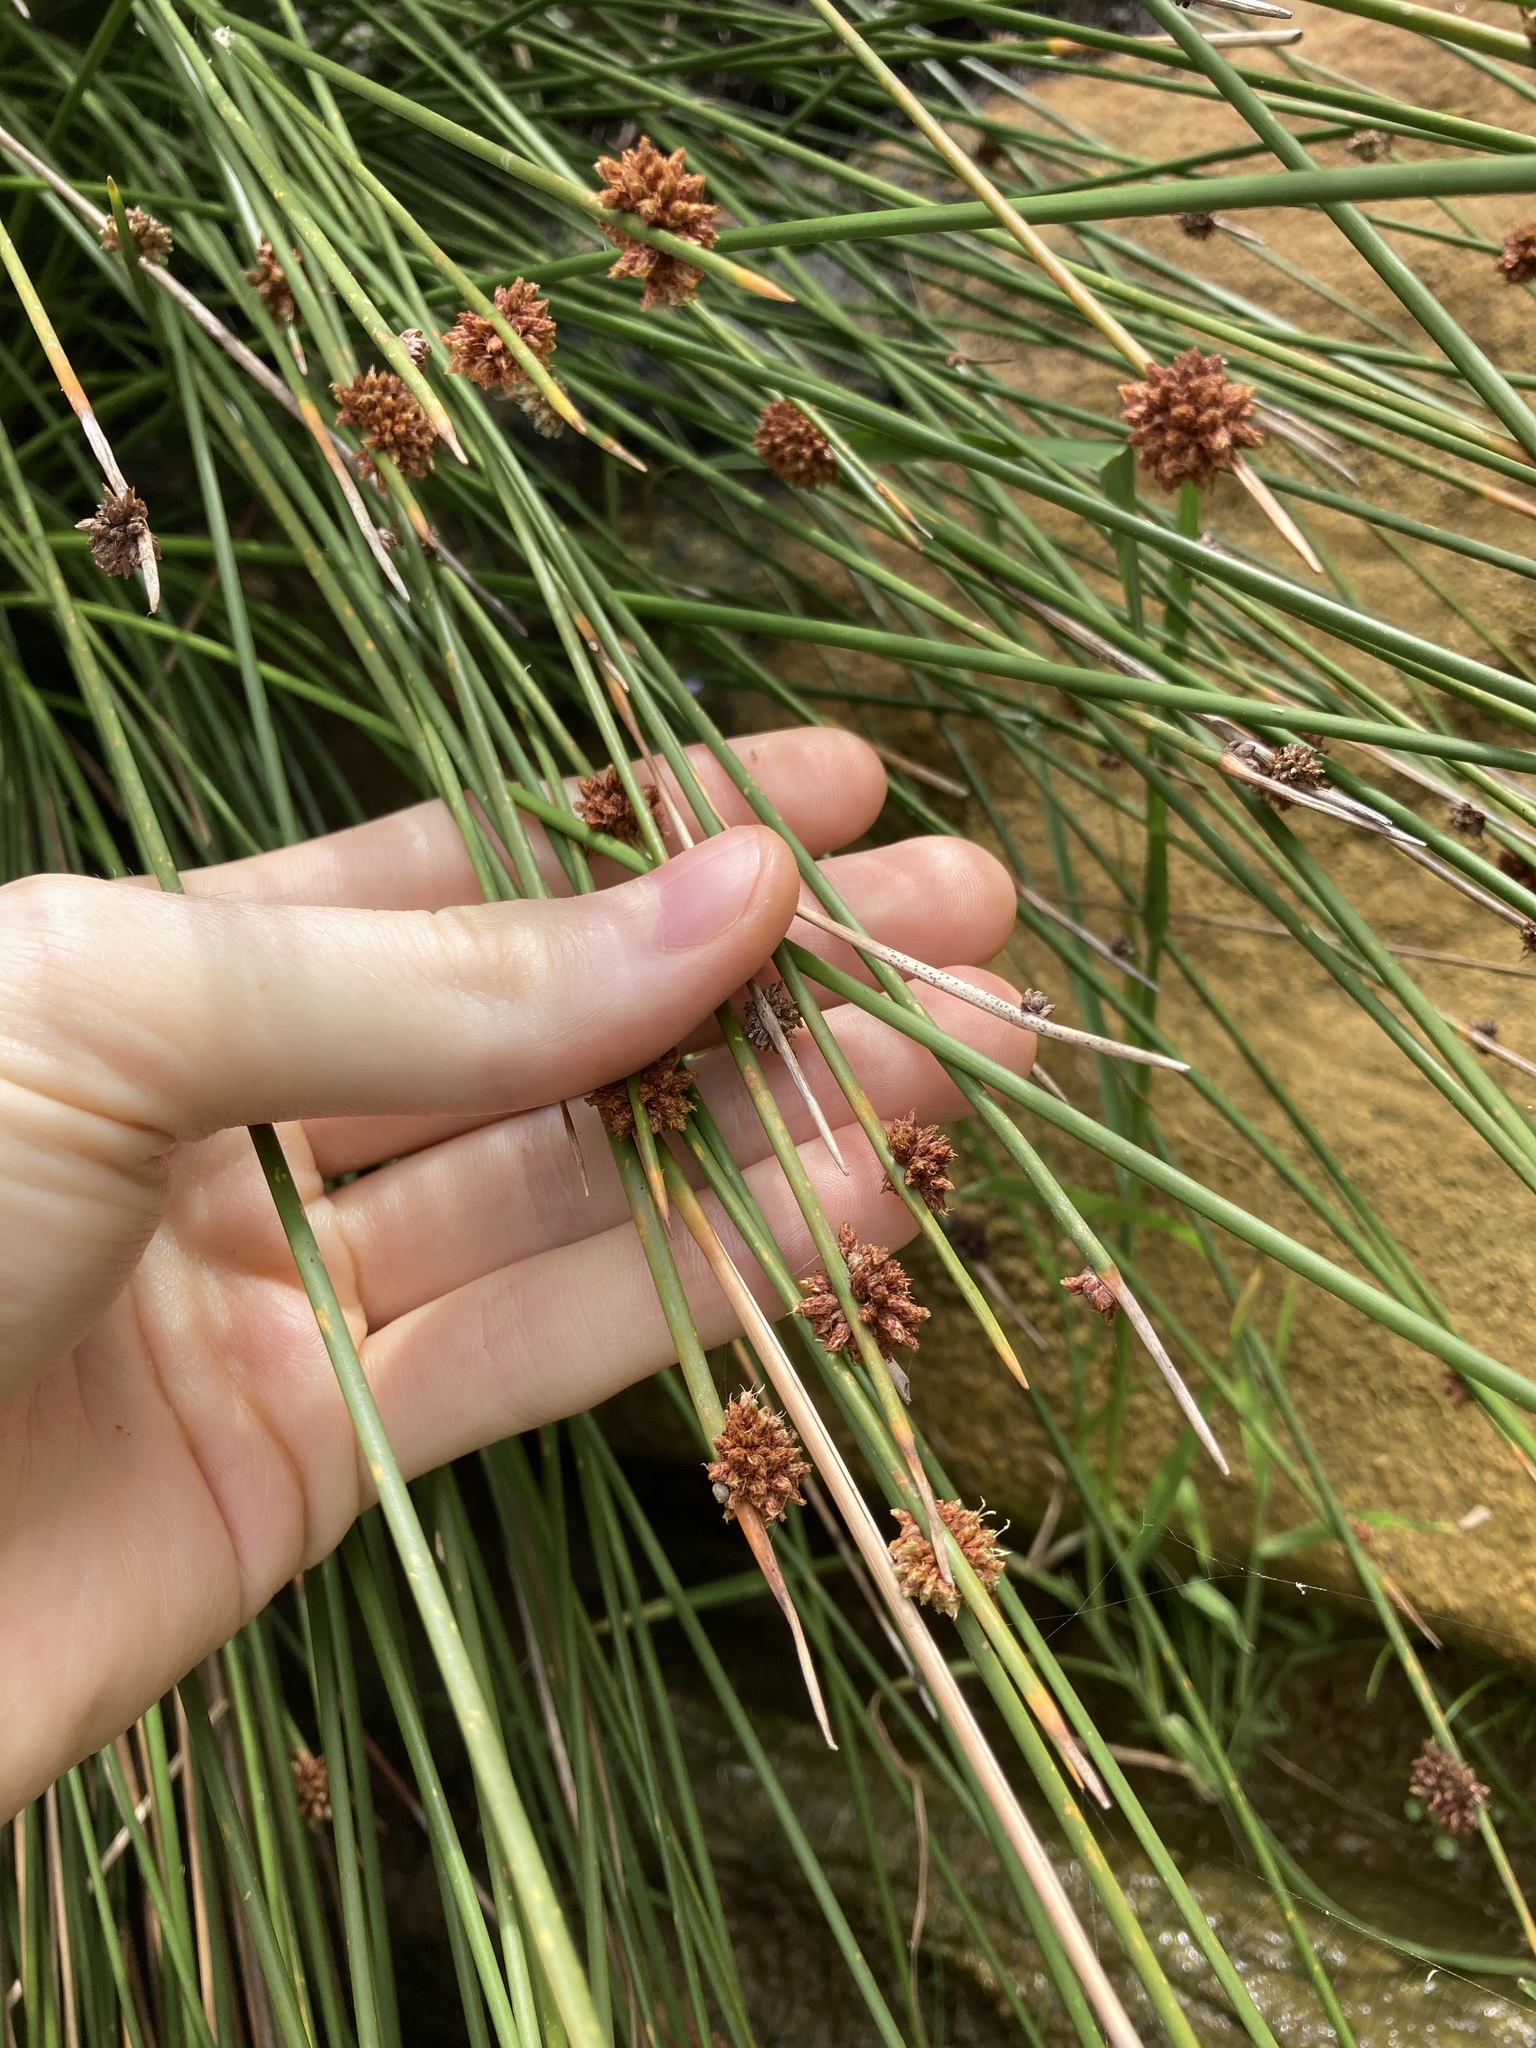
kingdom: Plantae
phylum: Tracheophyta
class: Liliopsida
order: Poales
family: Cyperaceae
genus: Ficinia
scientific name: Ficinia nodosa
